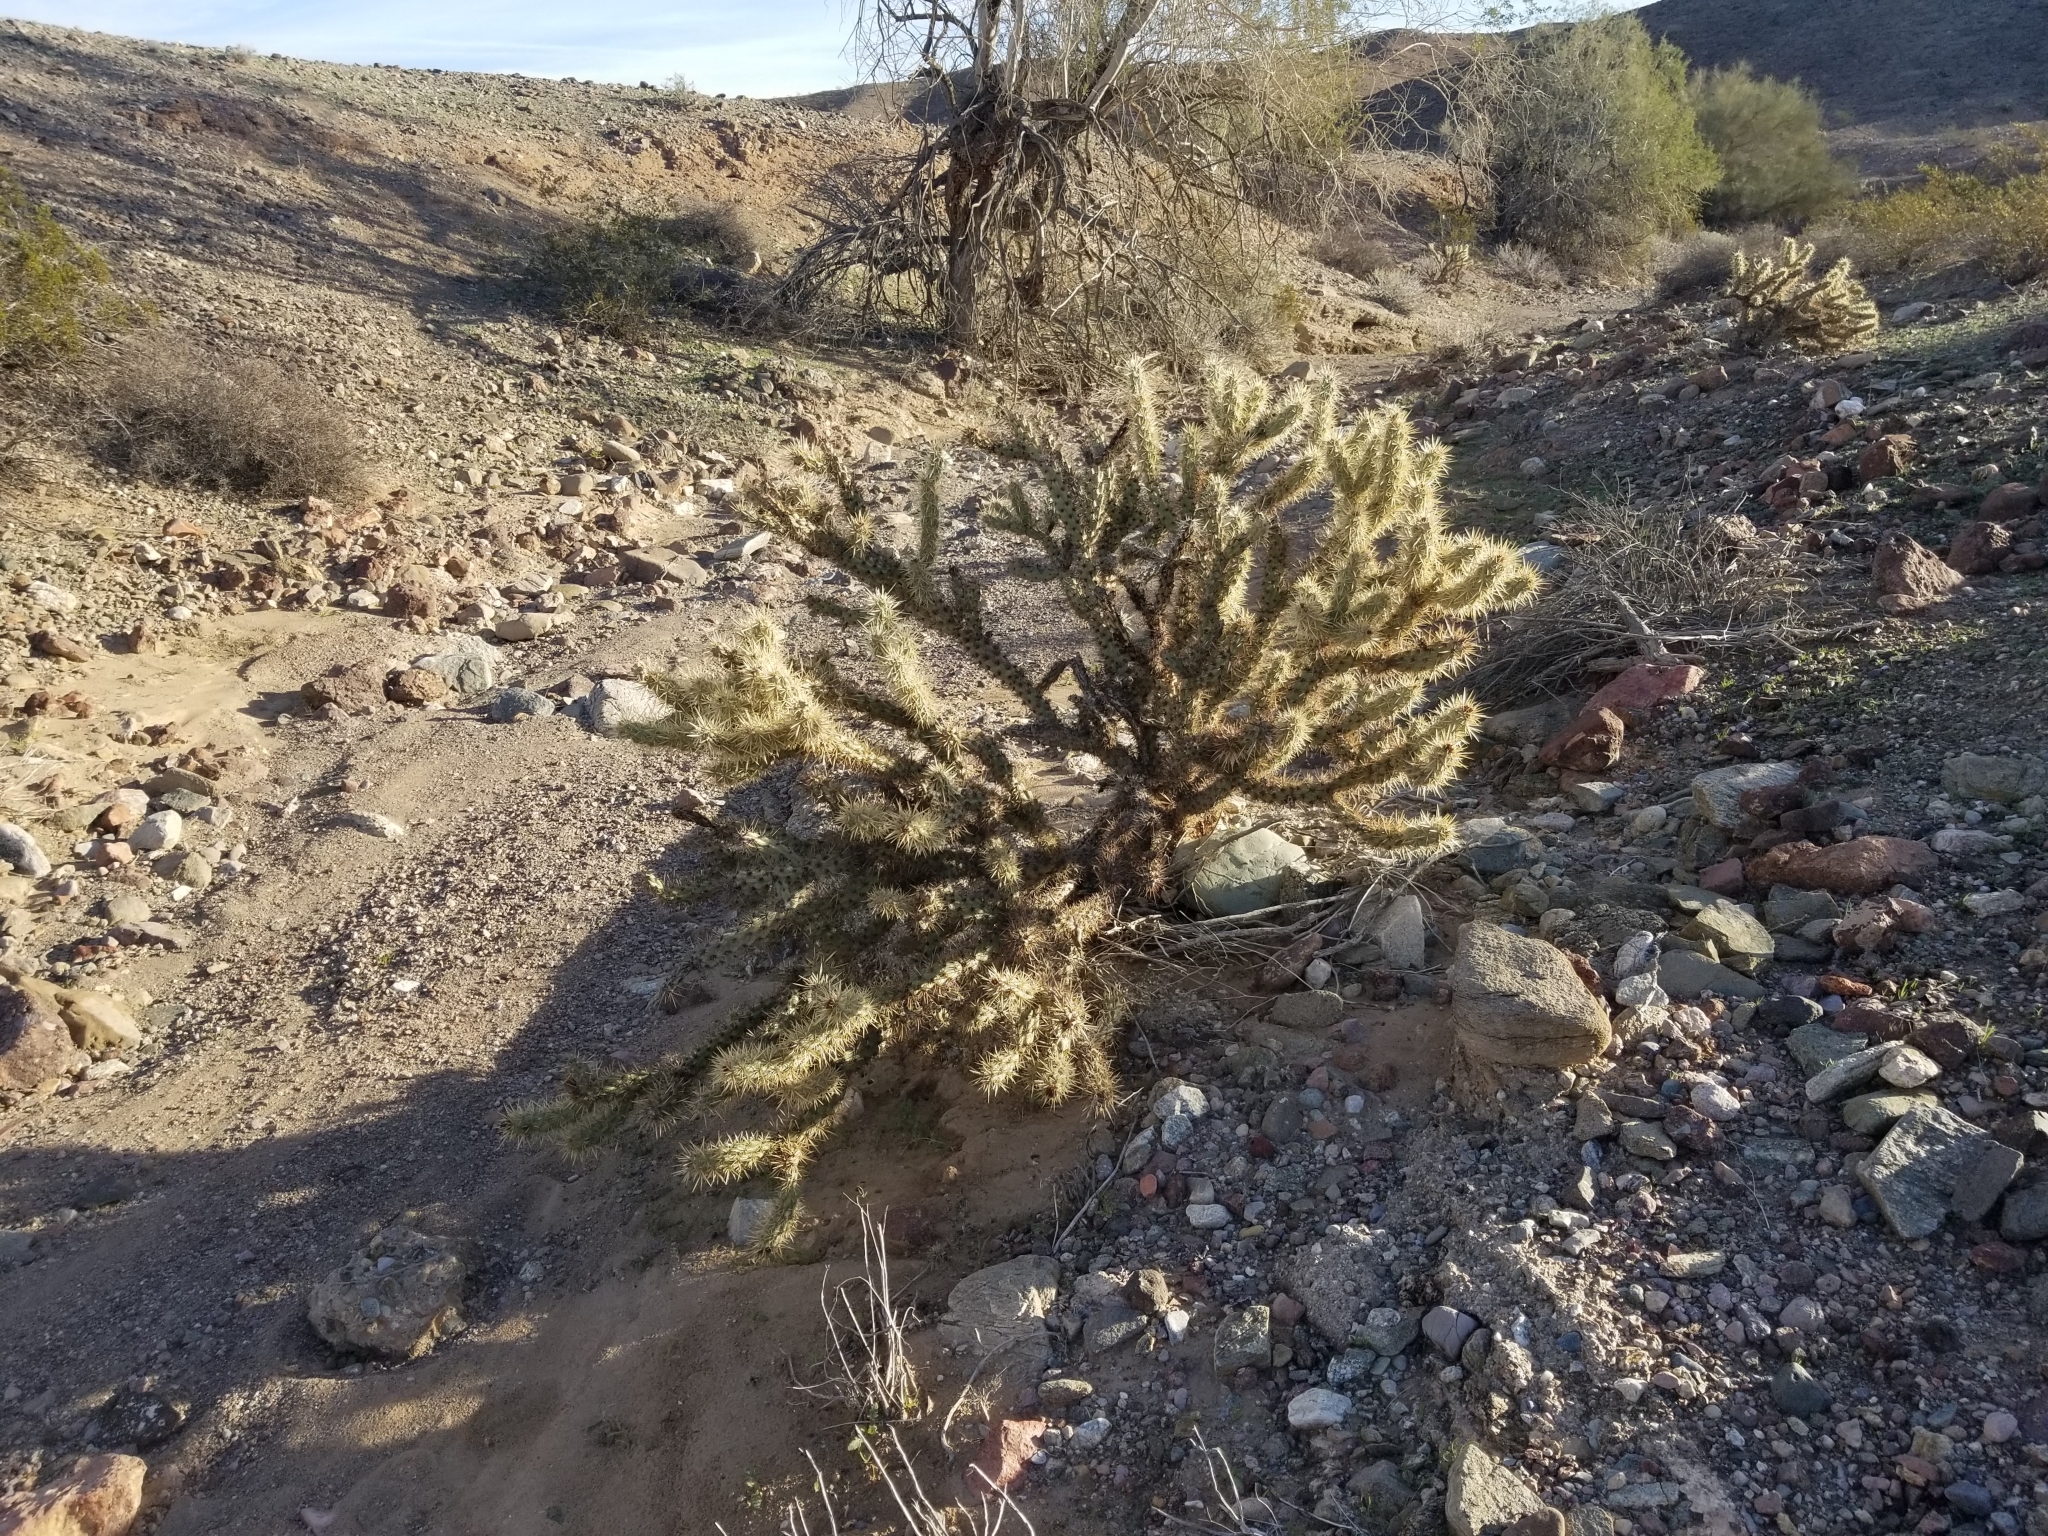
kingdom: Plantae
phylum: Tracheophyta
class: Magnoliopsida
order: Caryophyllales
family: Cactaceae
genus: Cylindropuntia
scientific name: Cylindropuntia acanthocarpa
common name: Buckhorn cholla
